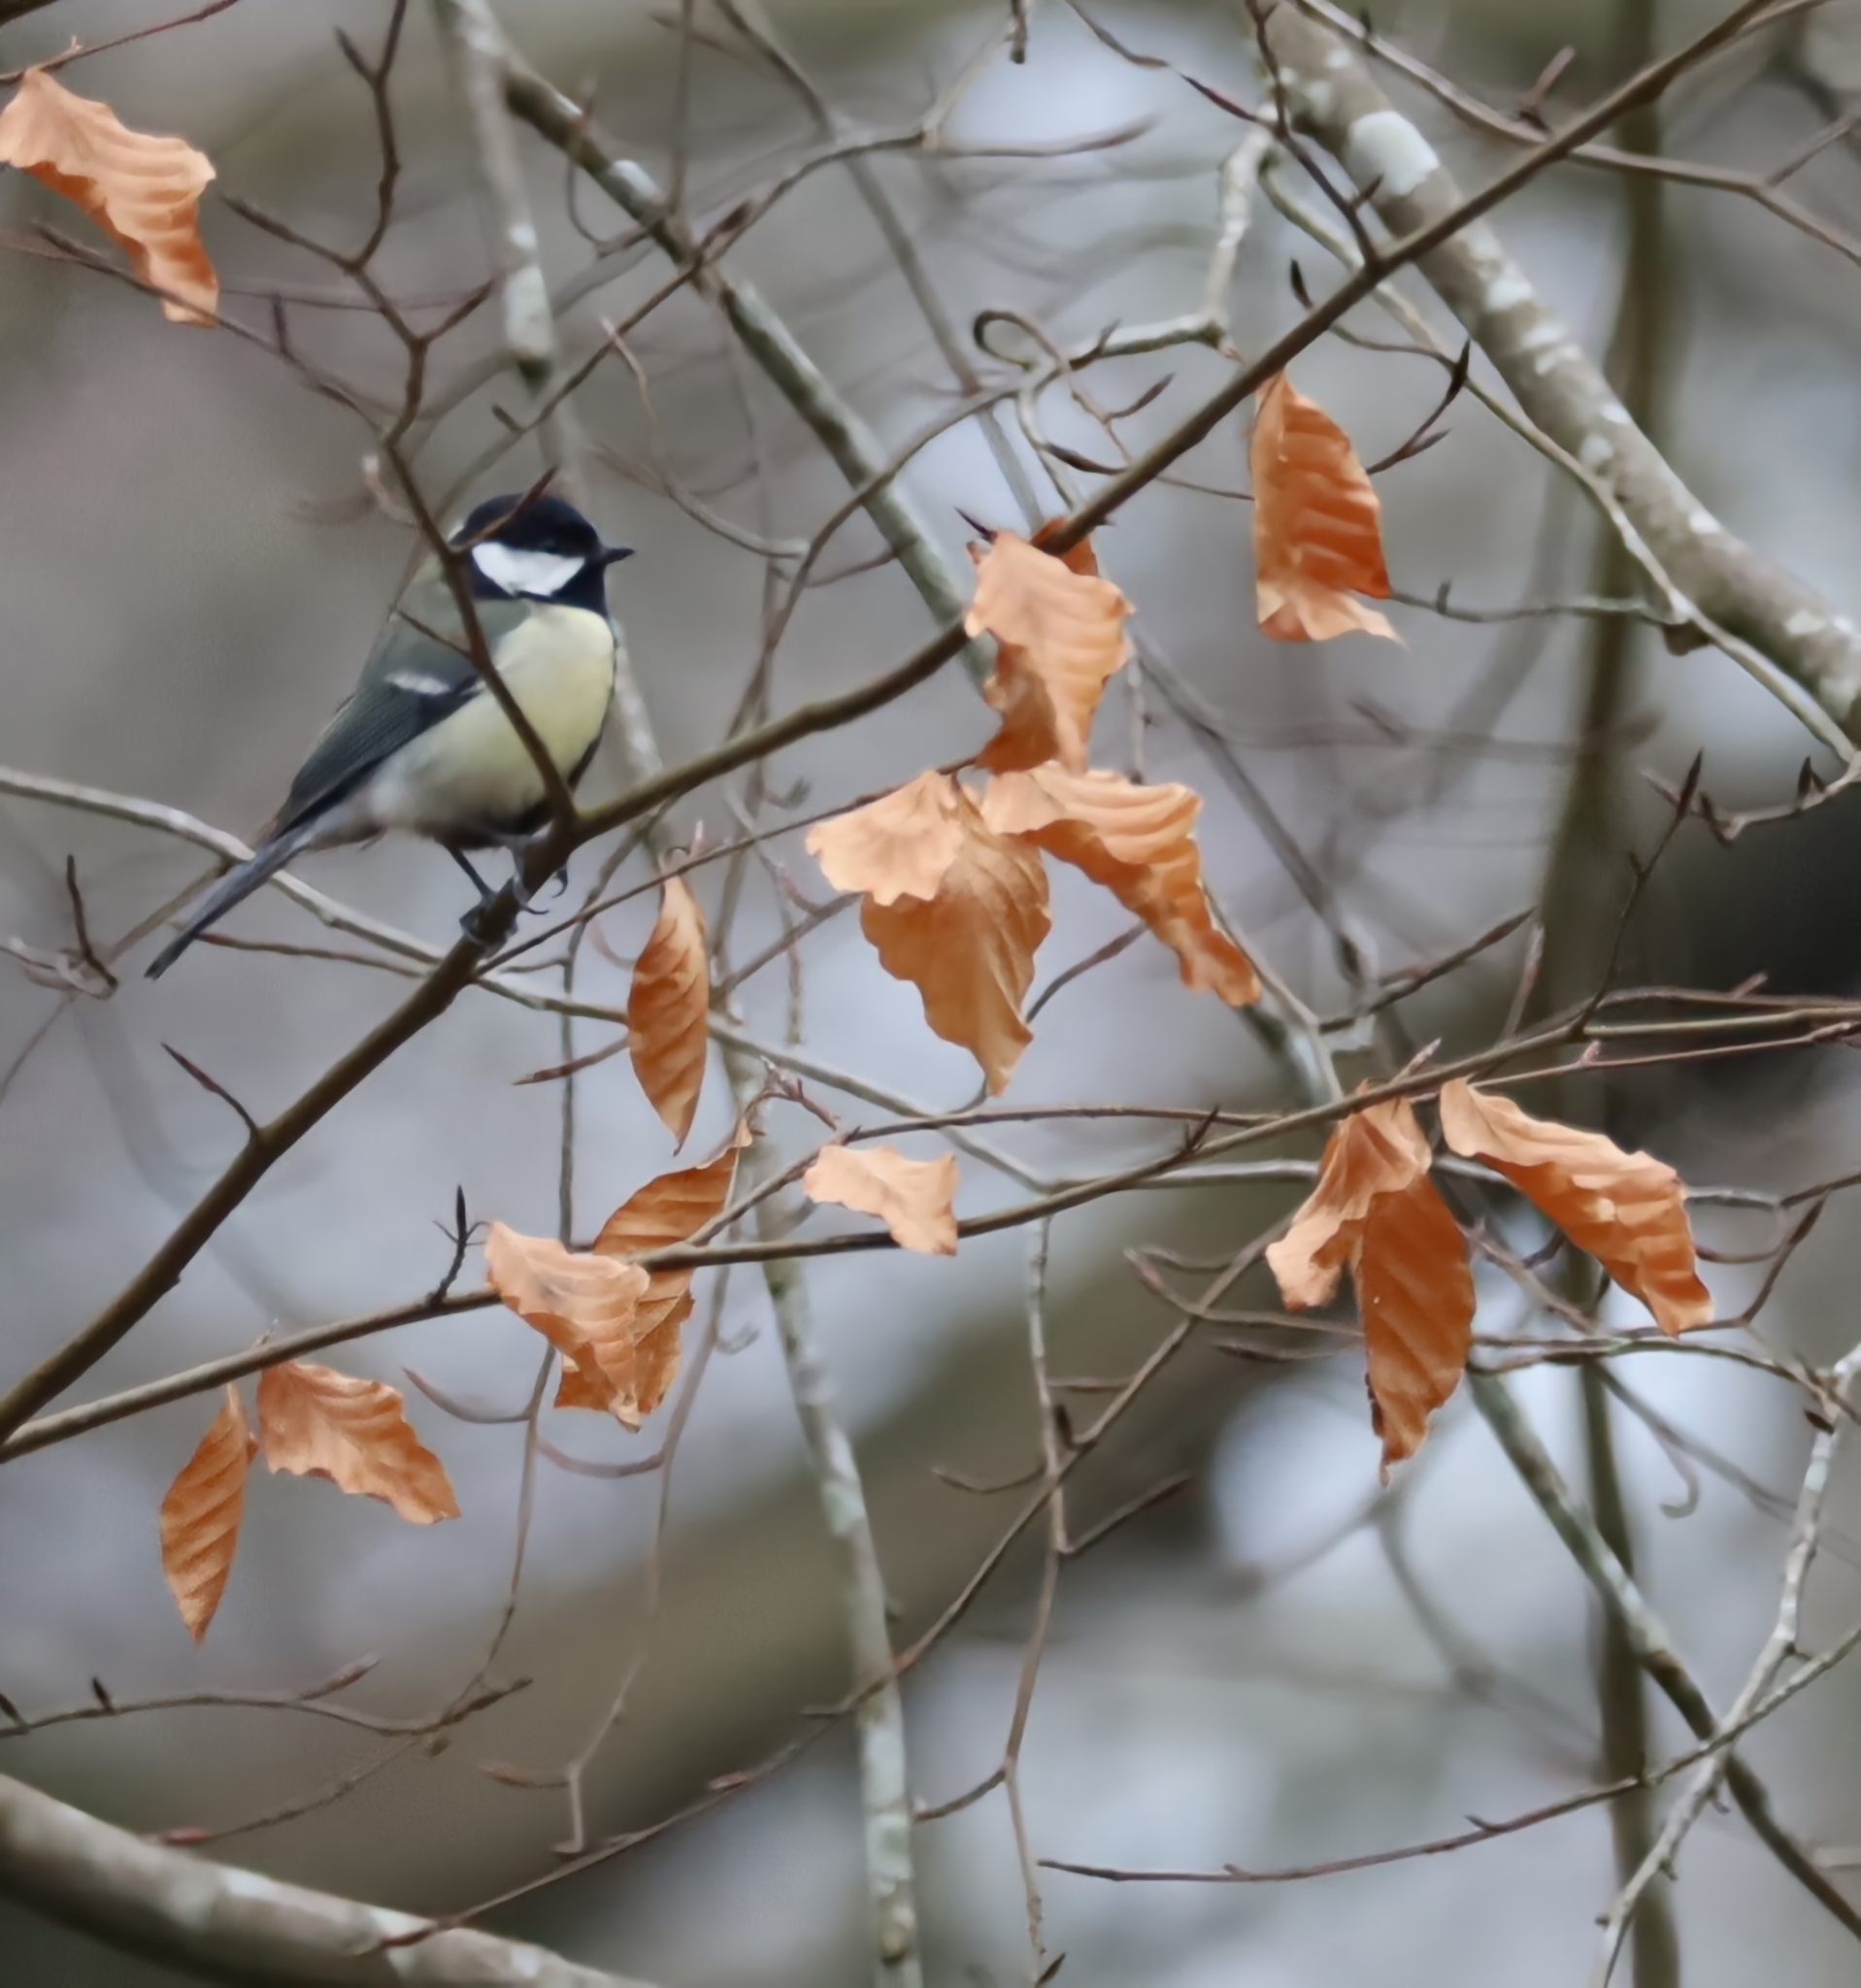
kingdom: Animalia
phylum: Chordata
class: Aves
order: Passeriformes
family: Paridae
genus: Parus
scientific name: Parus major
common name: Great tit
